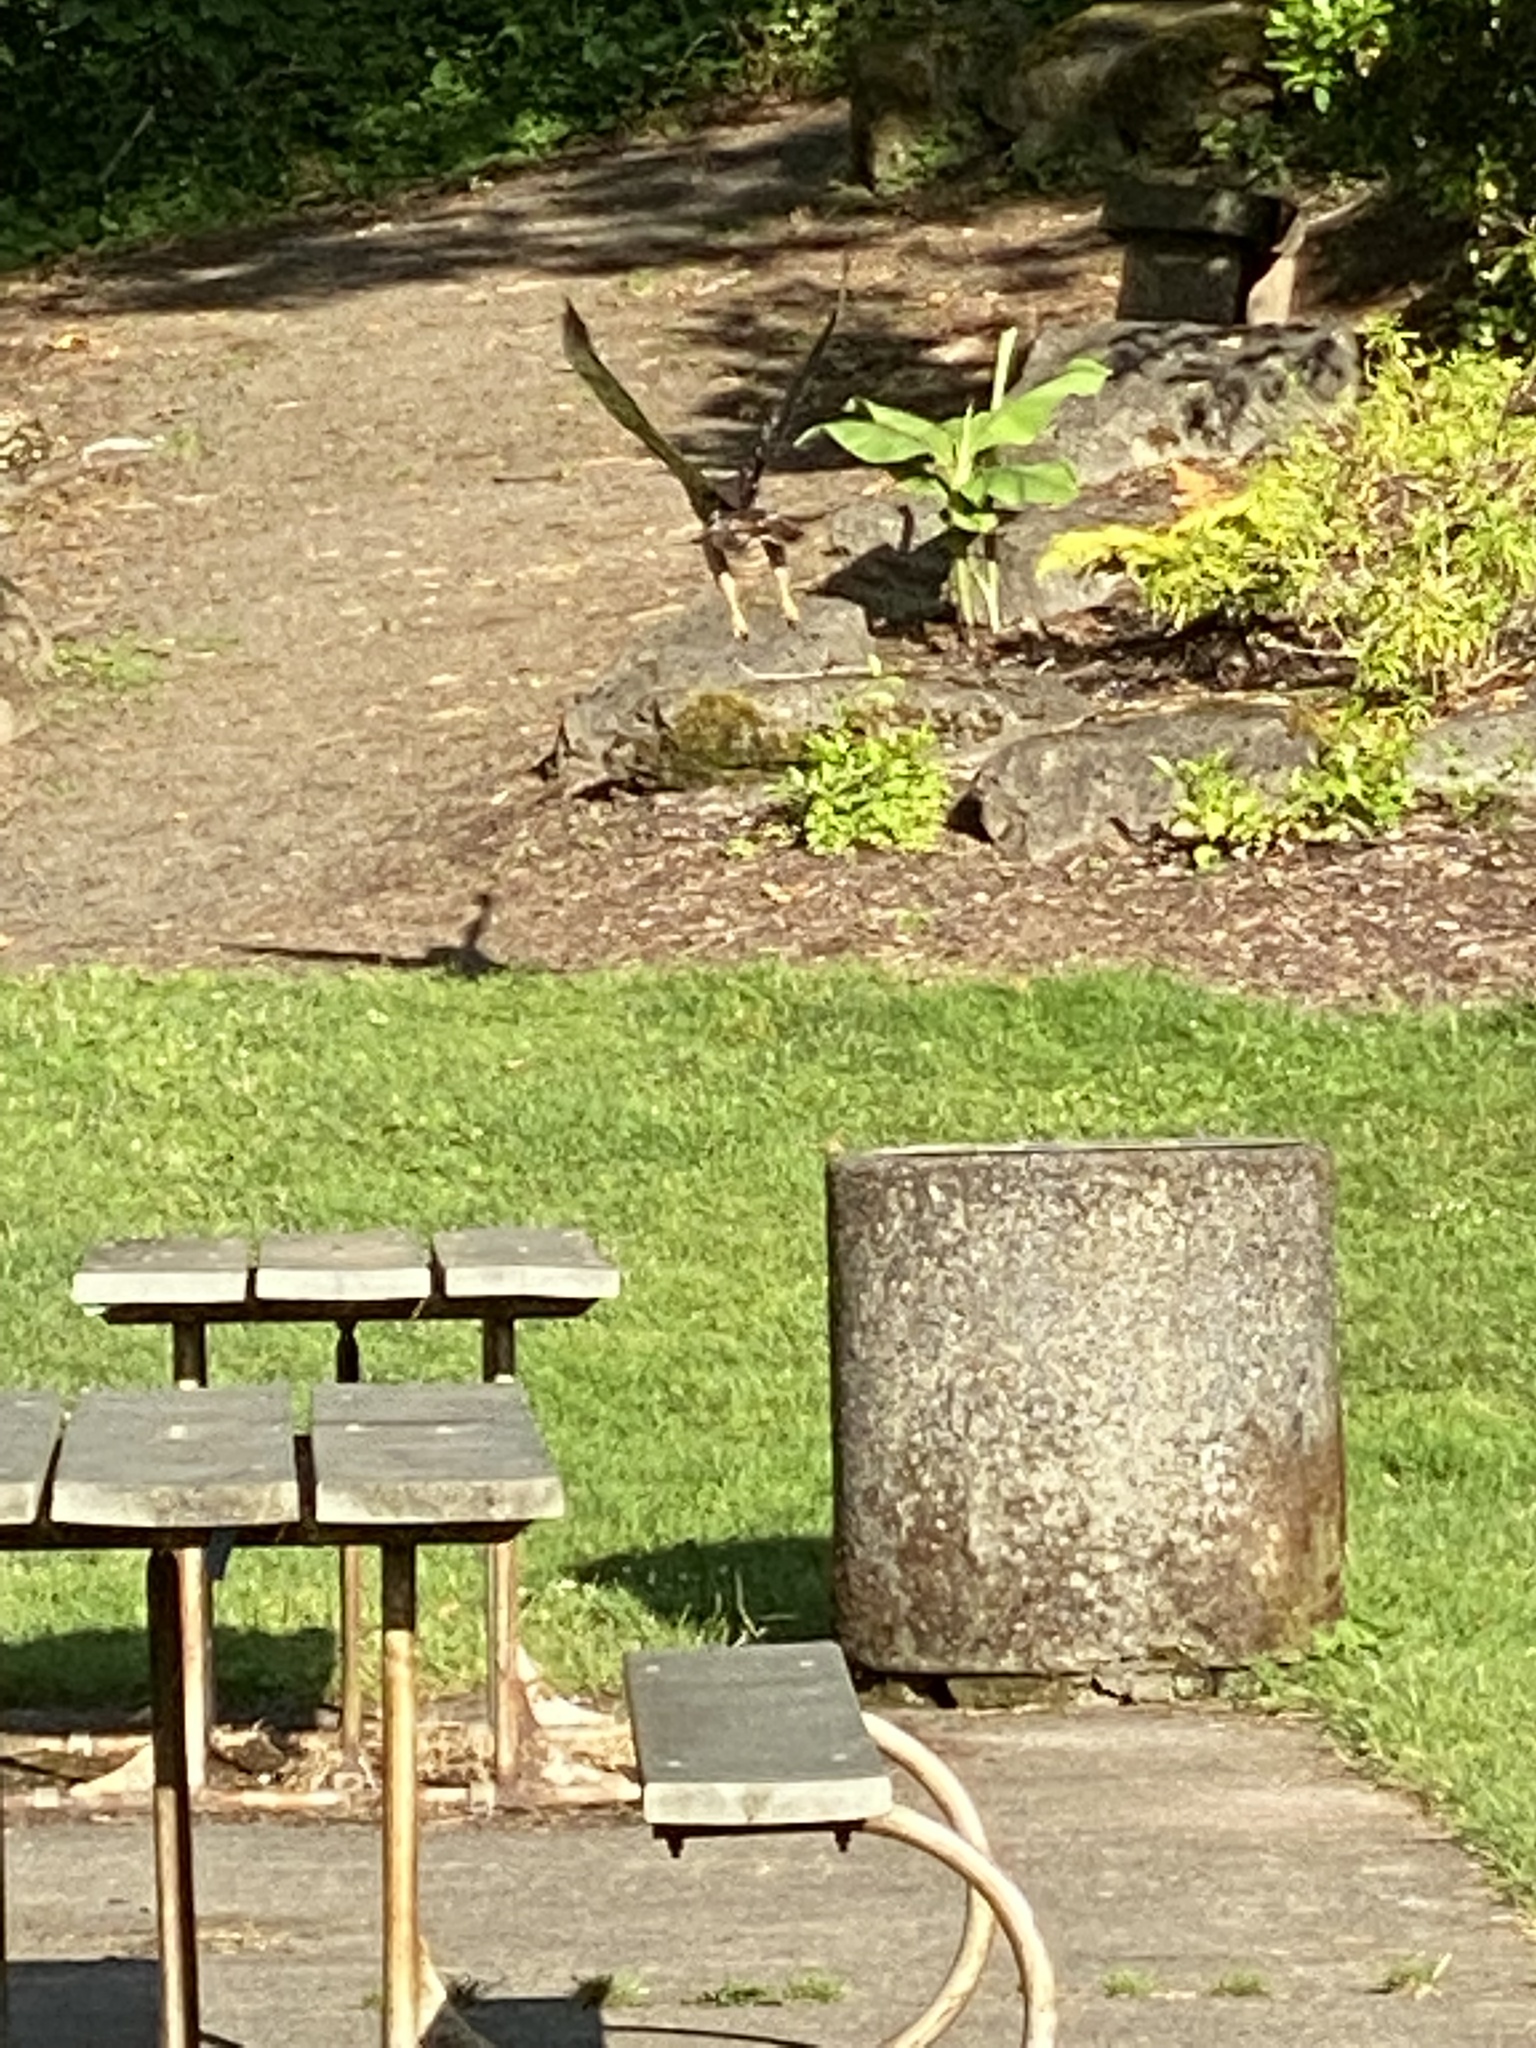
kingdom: Animalia
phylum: Chordata
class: Aves
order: Accipitriformes
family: Accipitridae
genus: Buteo
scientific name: Buteo jamaicensis
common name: Red-tailed hawk
